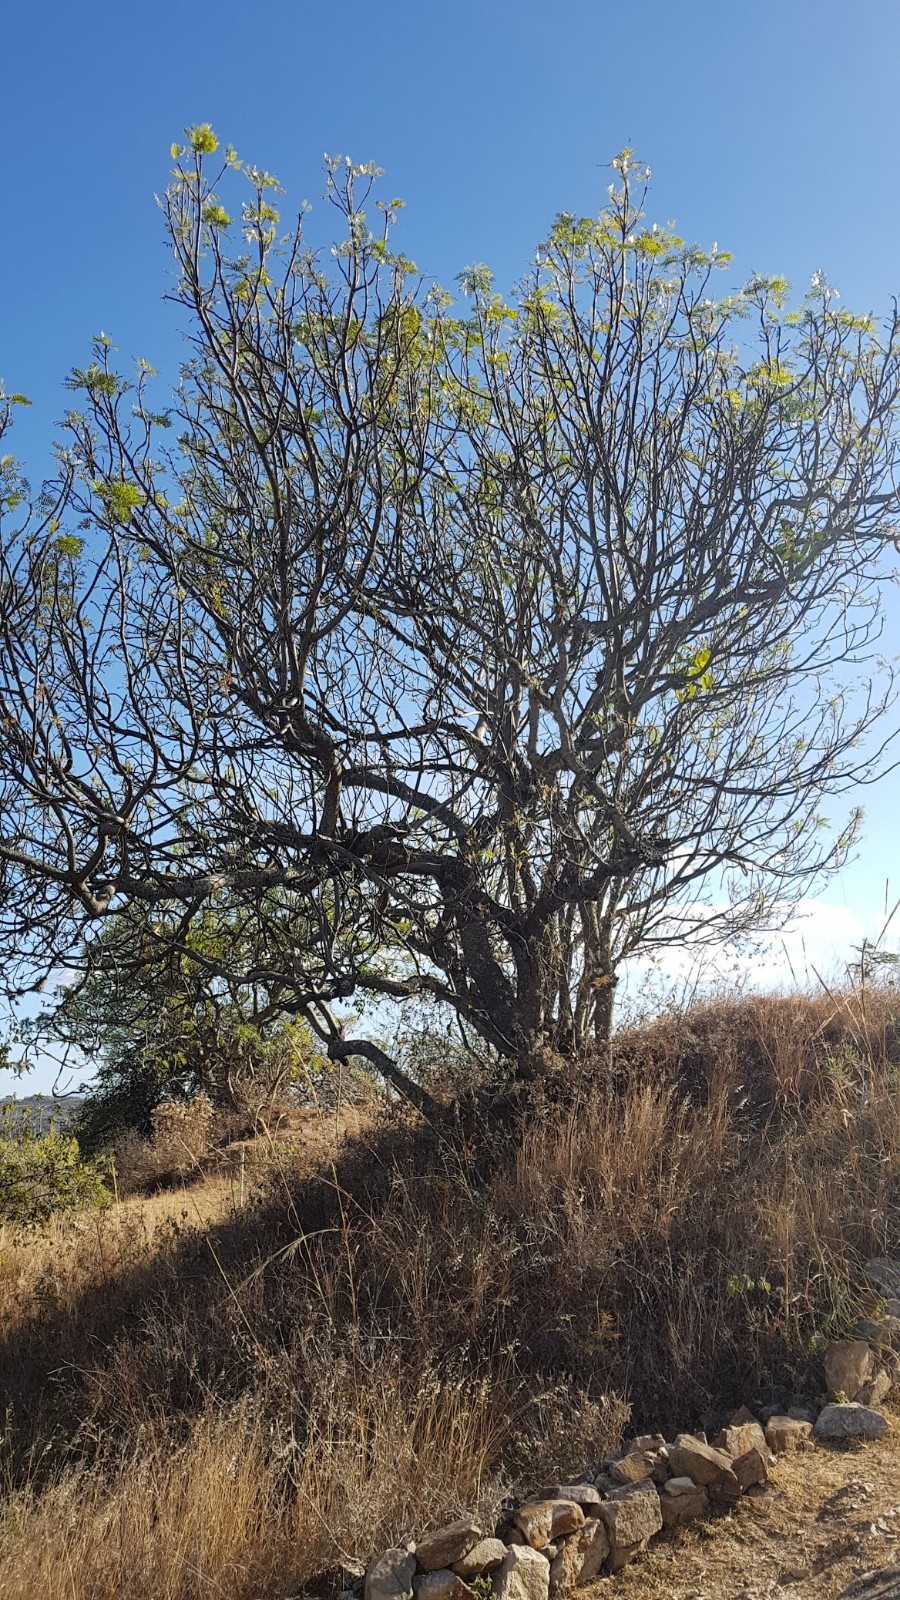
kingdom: Plantae
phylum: Tracheophyta
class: Magnoliopsida
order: Sapindales
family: Anacardiaceae
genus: Pseudosmodingium
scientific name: Pseudosmodingium andrieuxii
